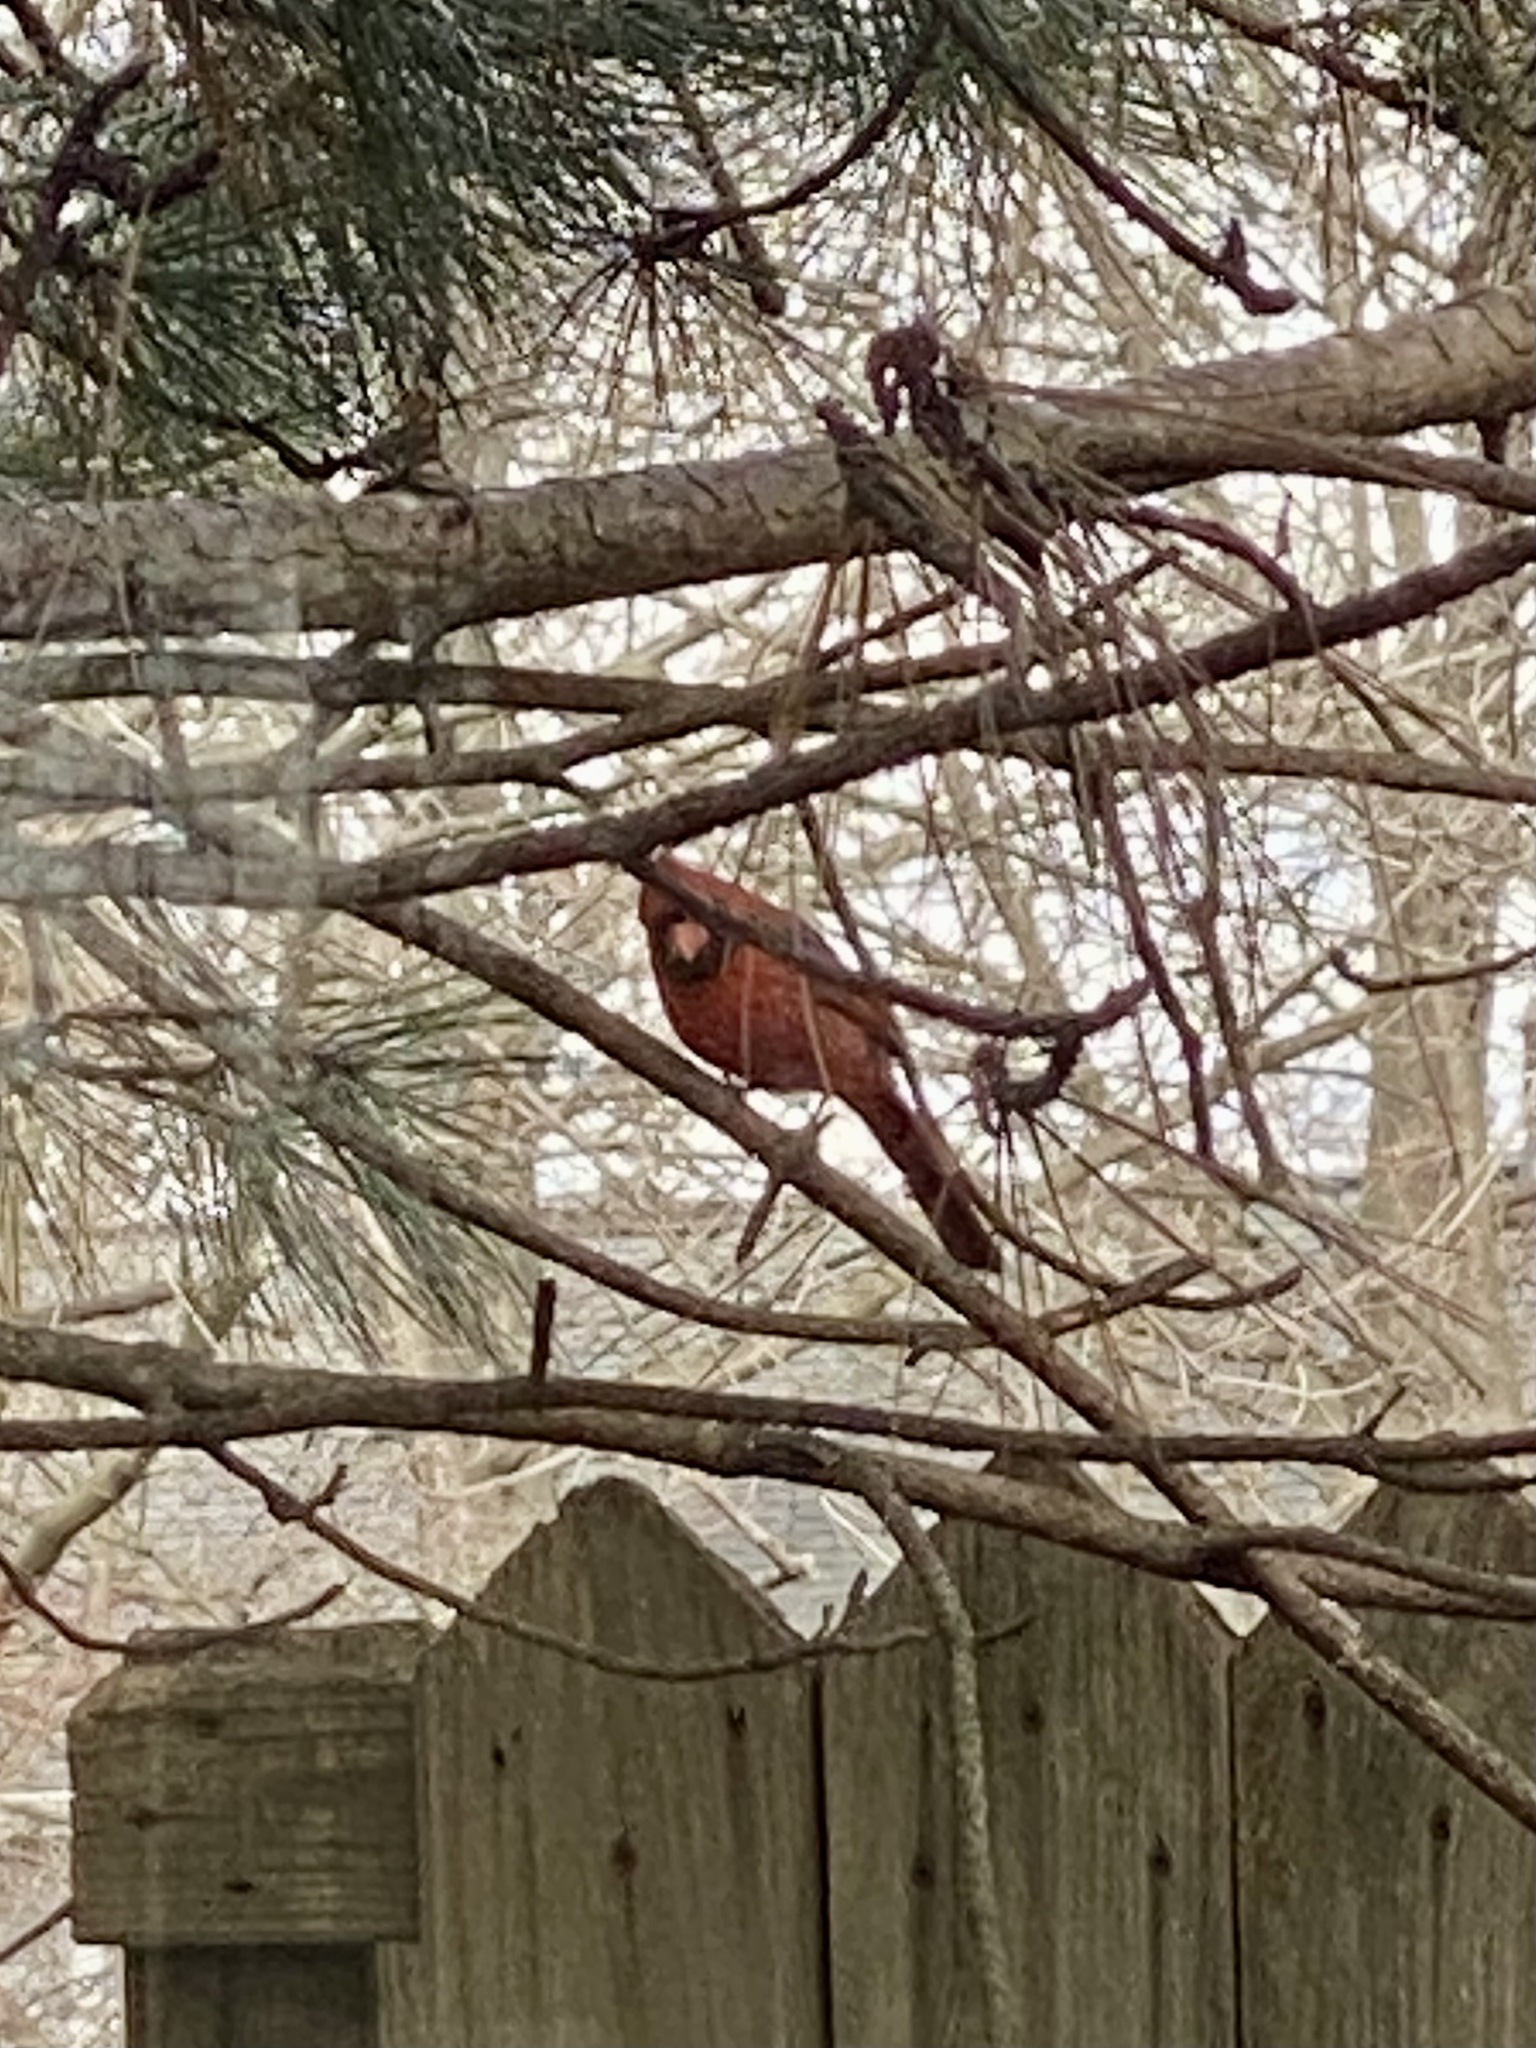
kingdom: Animalia
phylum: Chordata
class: Aves
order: Passeriformes
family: Cardinalidae
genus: Cardinalis
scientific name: Cardinalis cardinalis
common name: Northern cardinal
